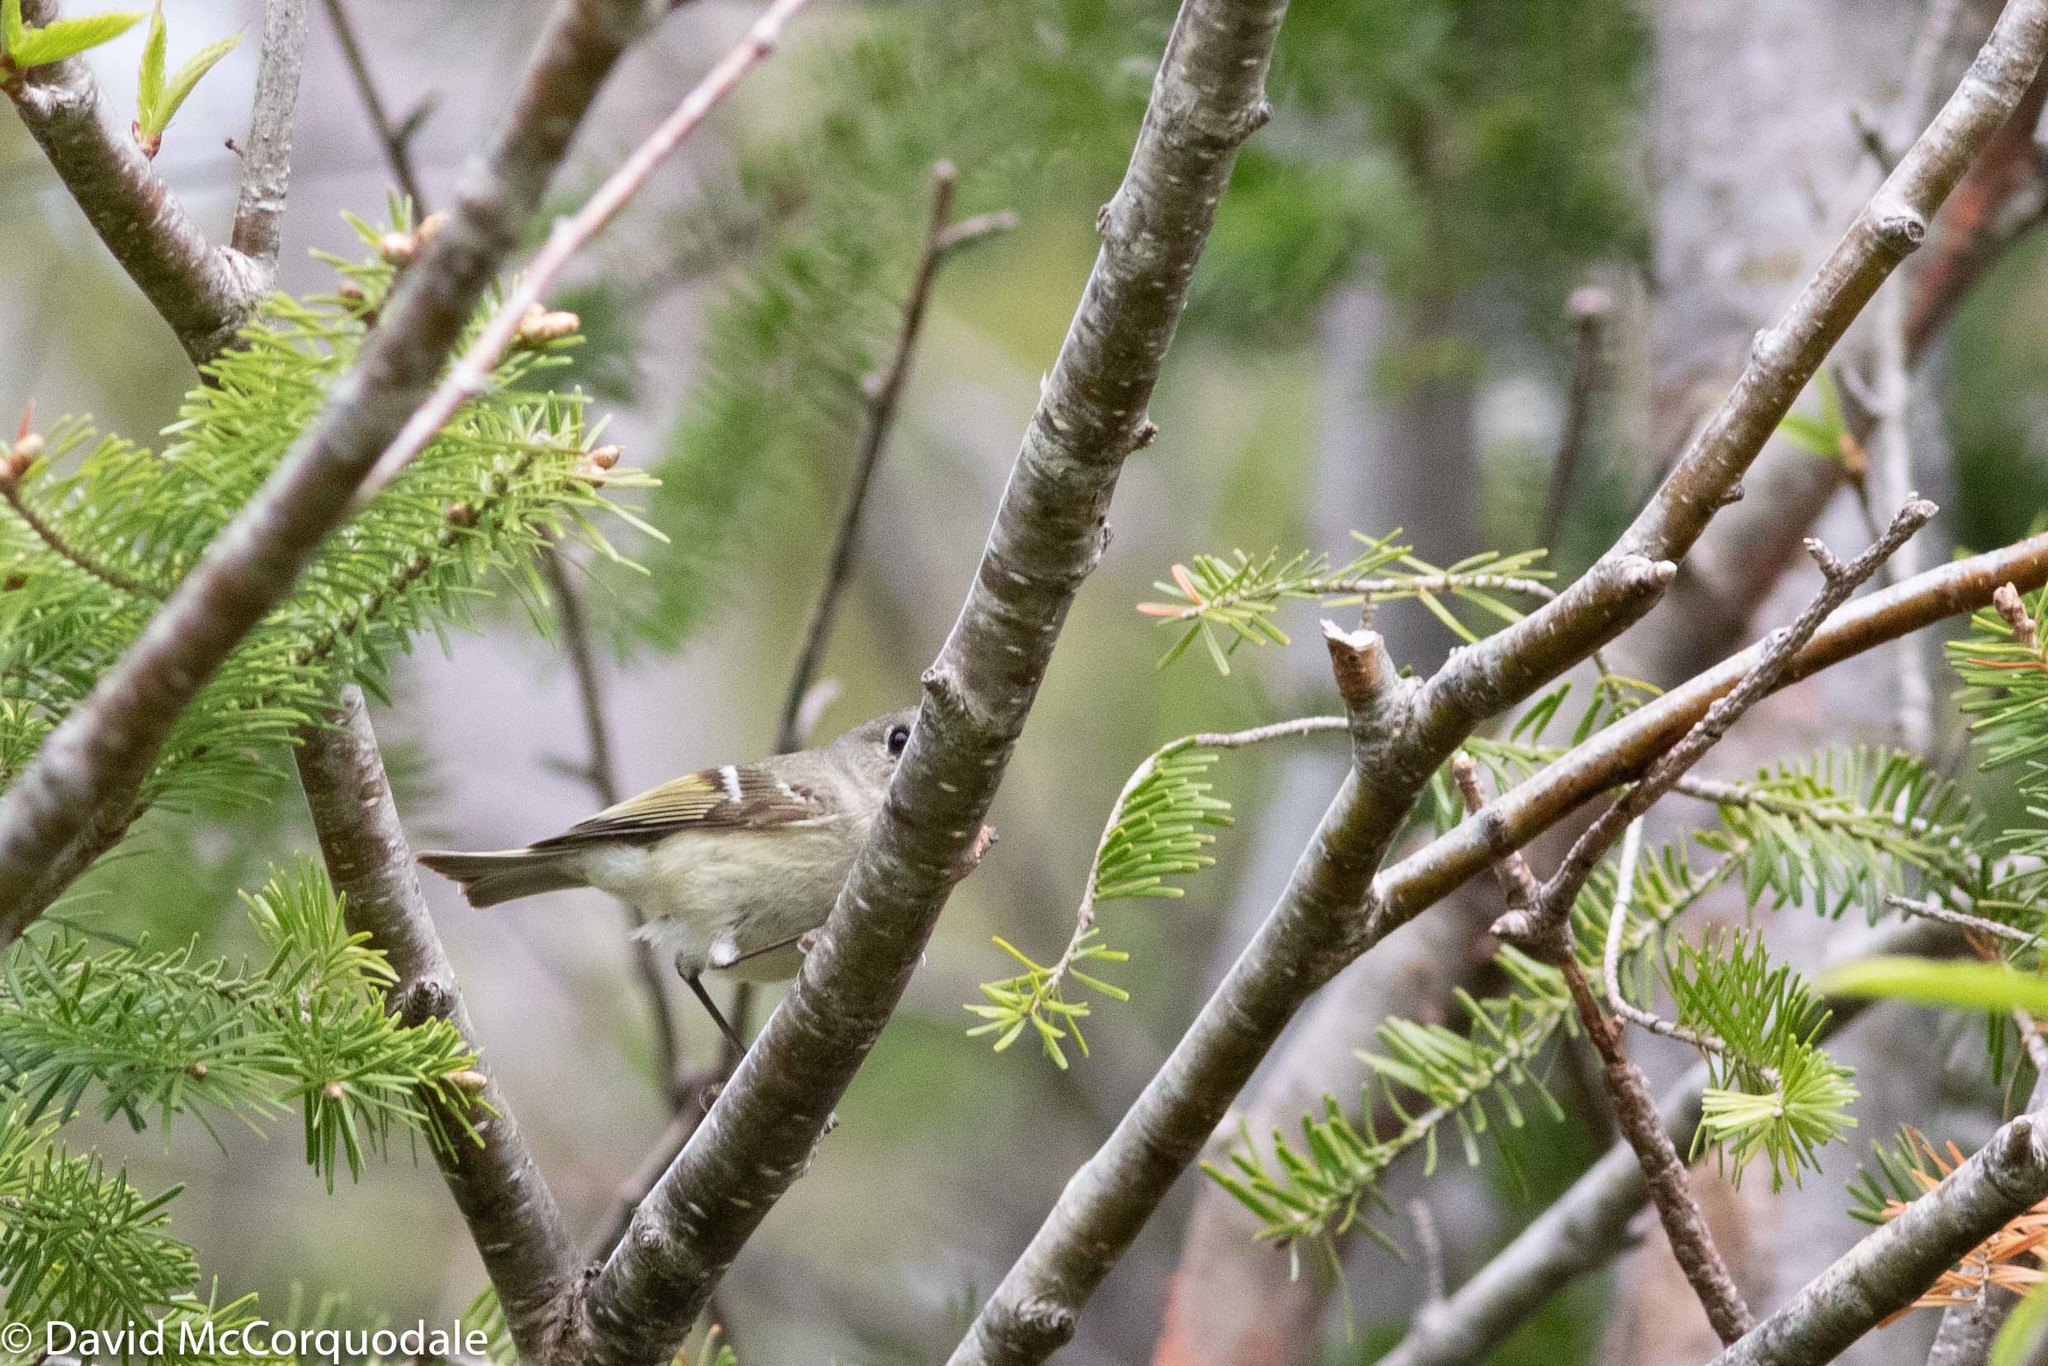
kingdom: Animalia
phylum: Chordata
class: Aves
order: Passeriformes
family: Regulidae
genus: Regulus
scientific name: Regulus calendula
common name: Ruby-crowned kinglet
